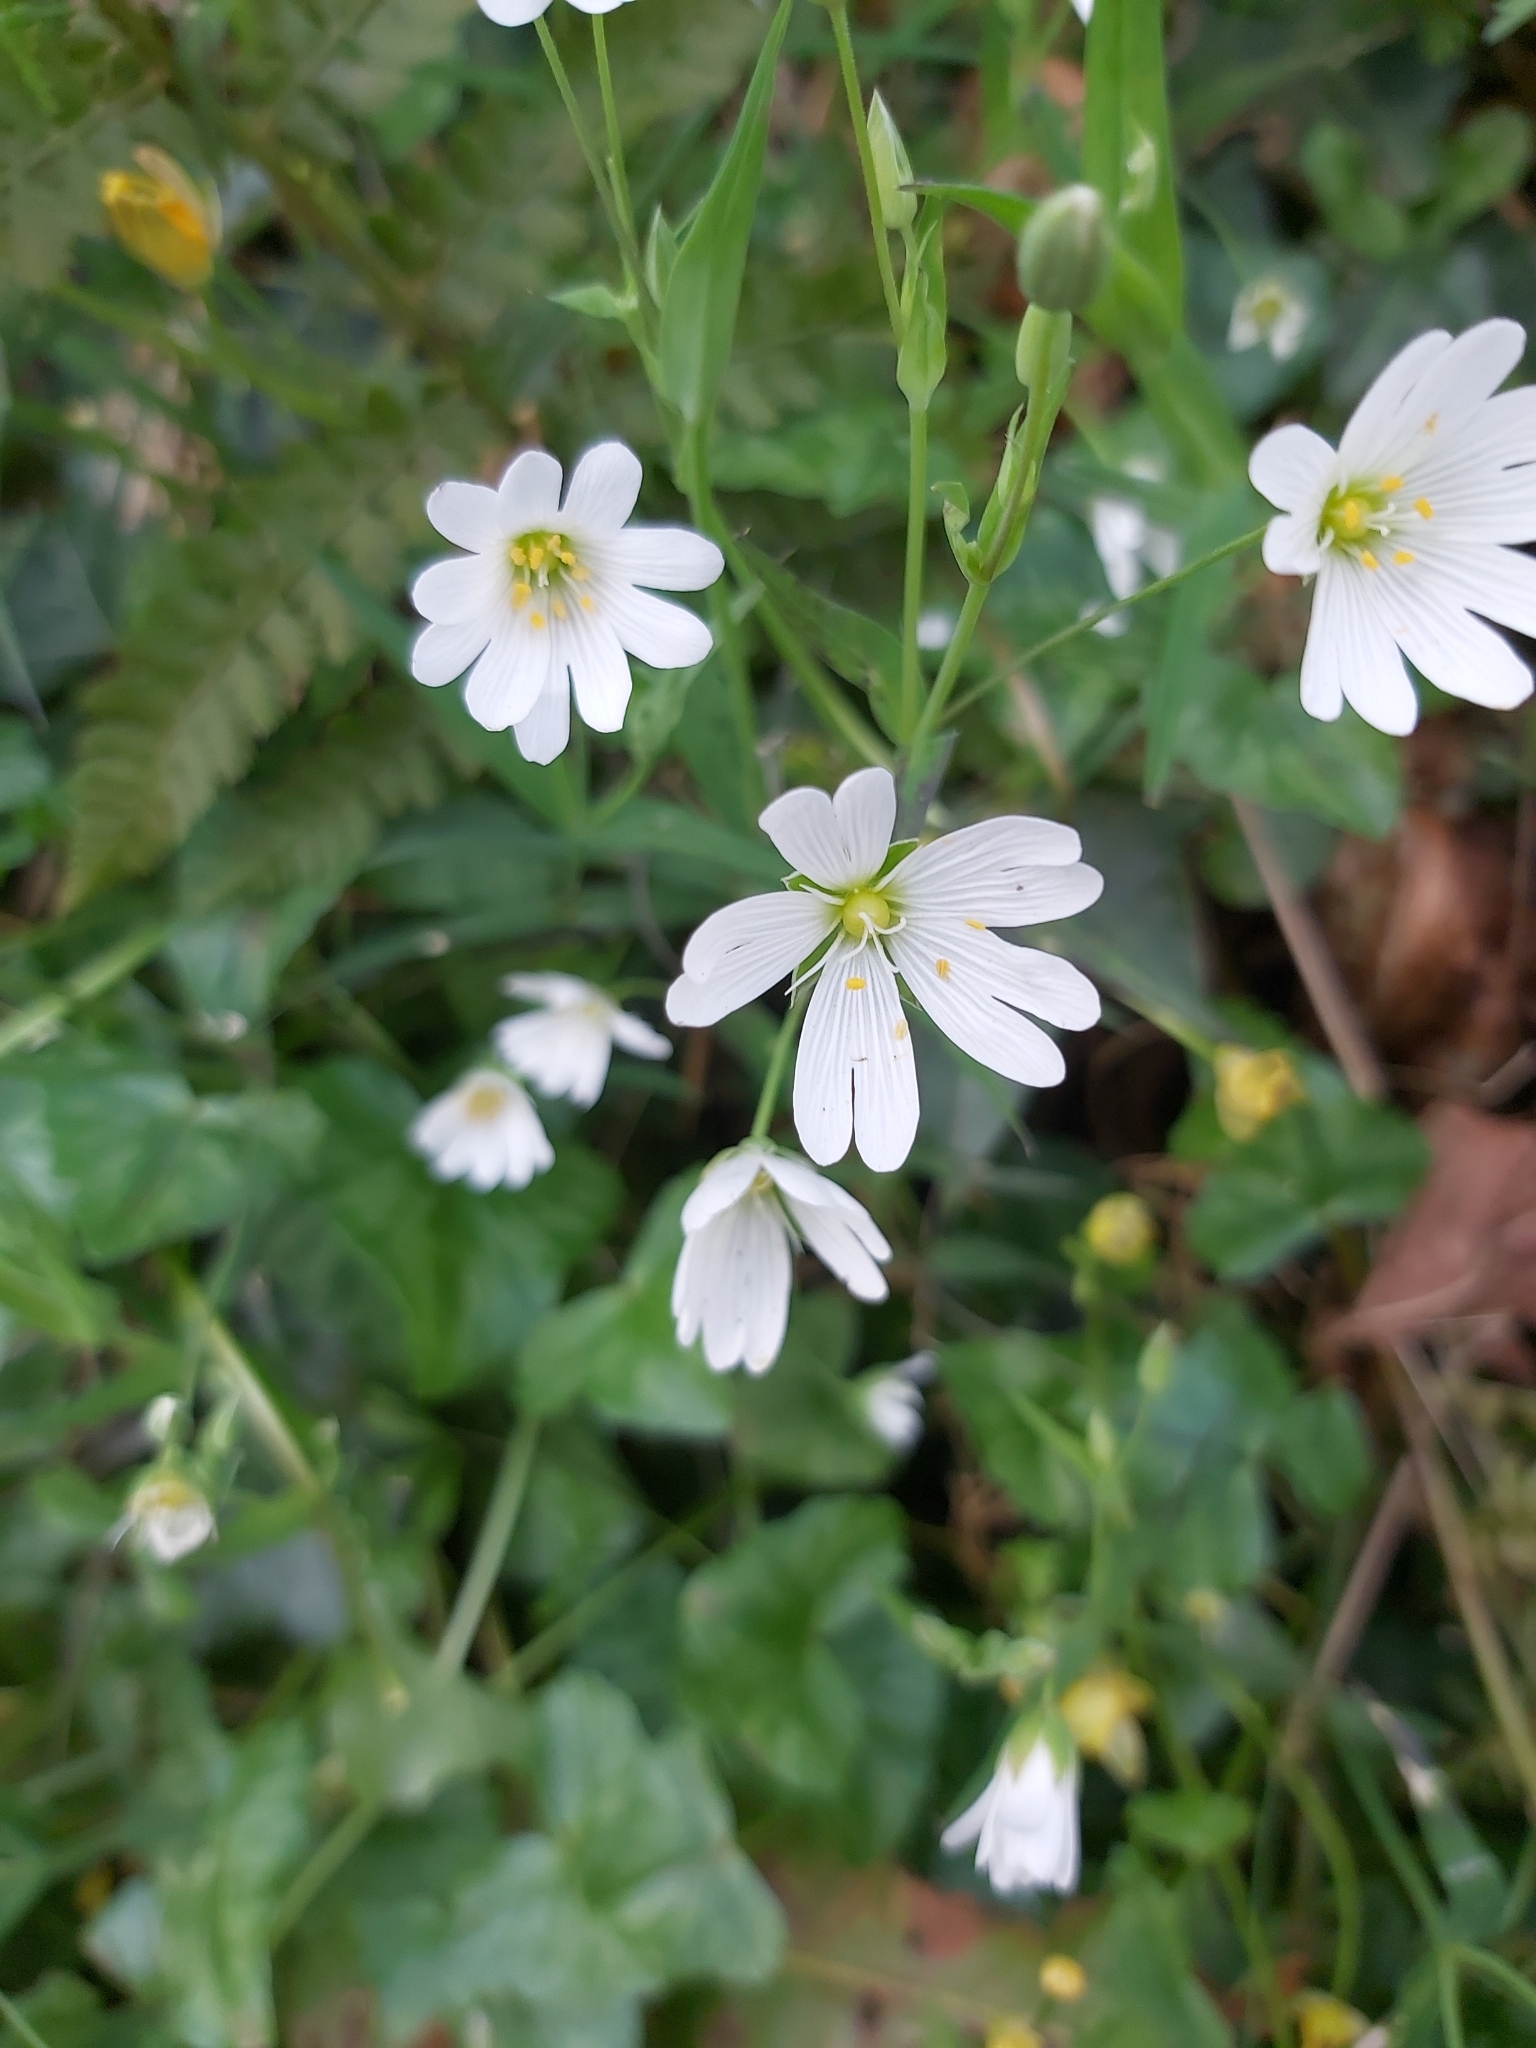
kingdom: Plantae
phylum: Tracheophyta
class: Magnoliopsida
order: Caryophyllales
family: Caryophyllaceae
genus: Rabelera
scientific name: Rabelera holostea
